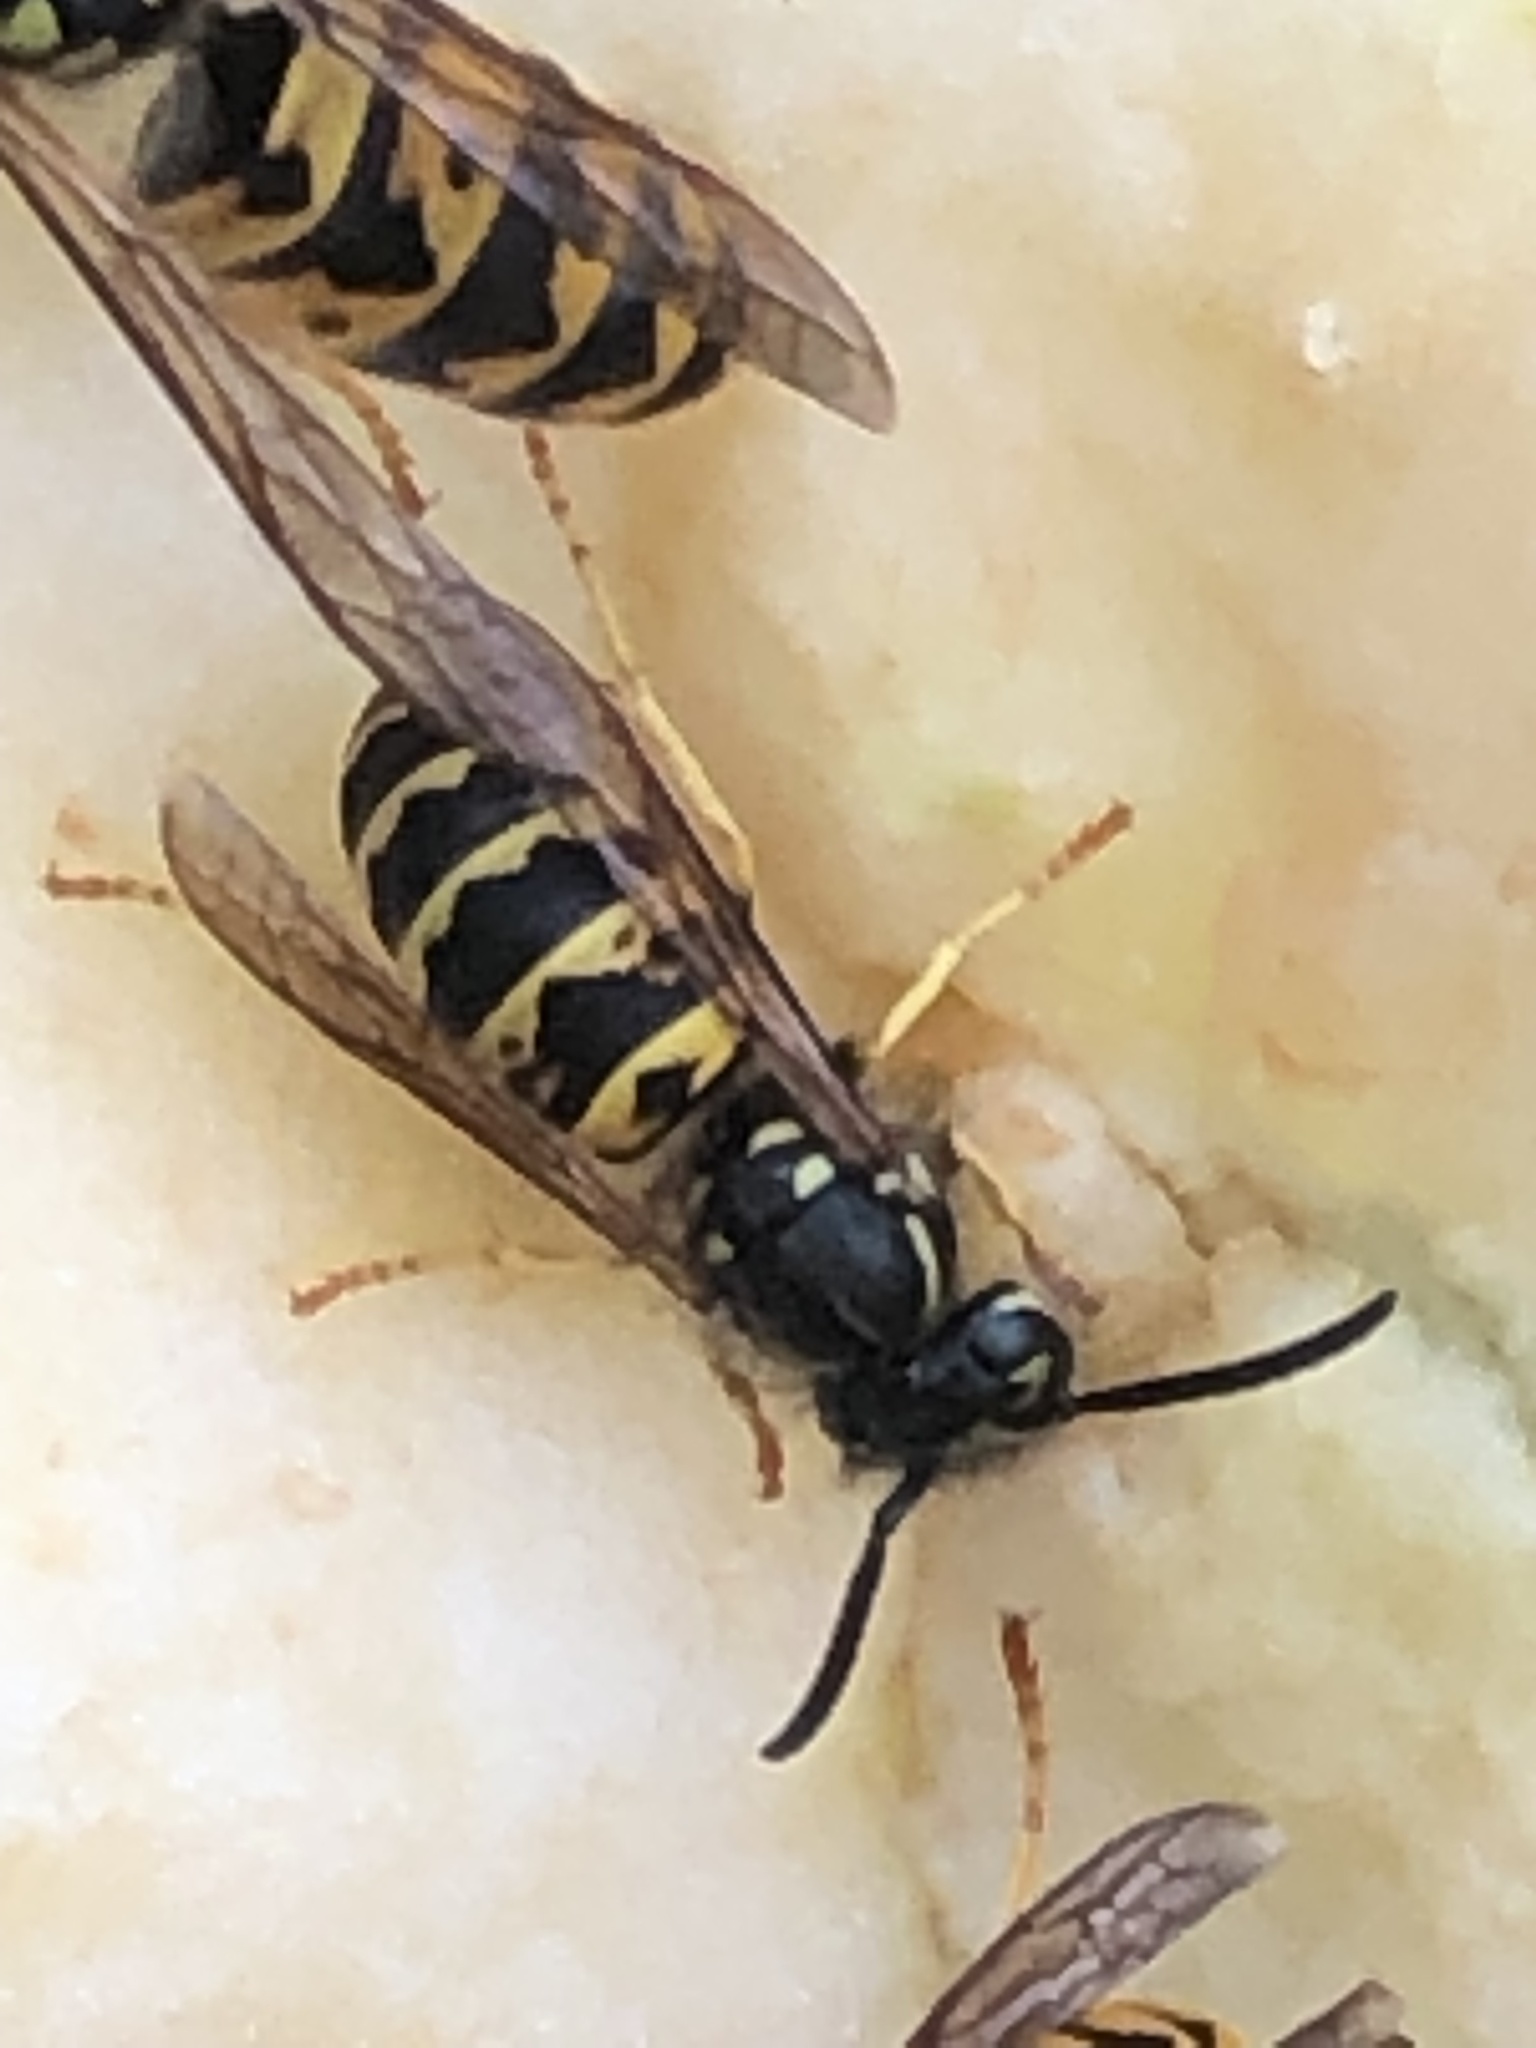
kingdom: Animalia
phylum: Arthropoda
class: Insecta
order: Hymenoptera
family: Vespidae
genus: Vespula
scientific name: Vespula alascensis
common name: Alaska yellowjacket
